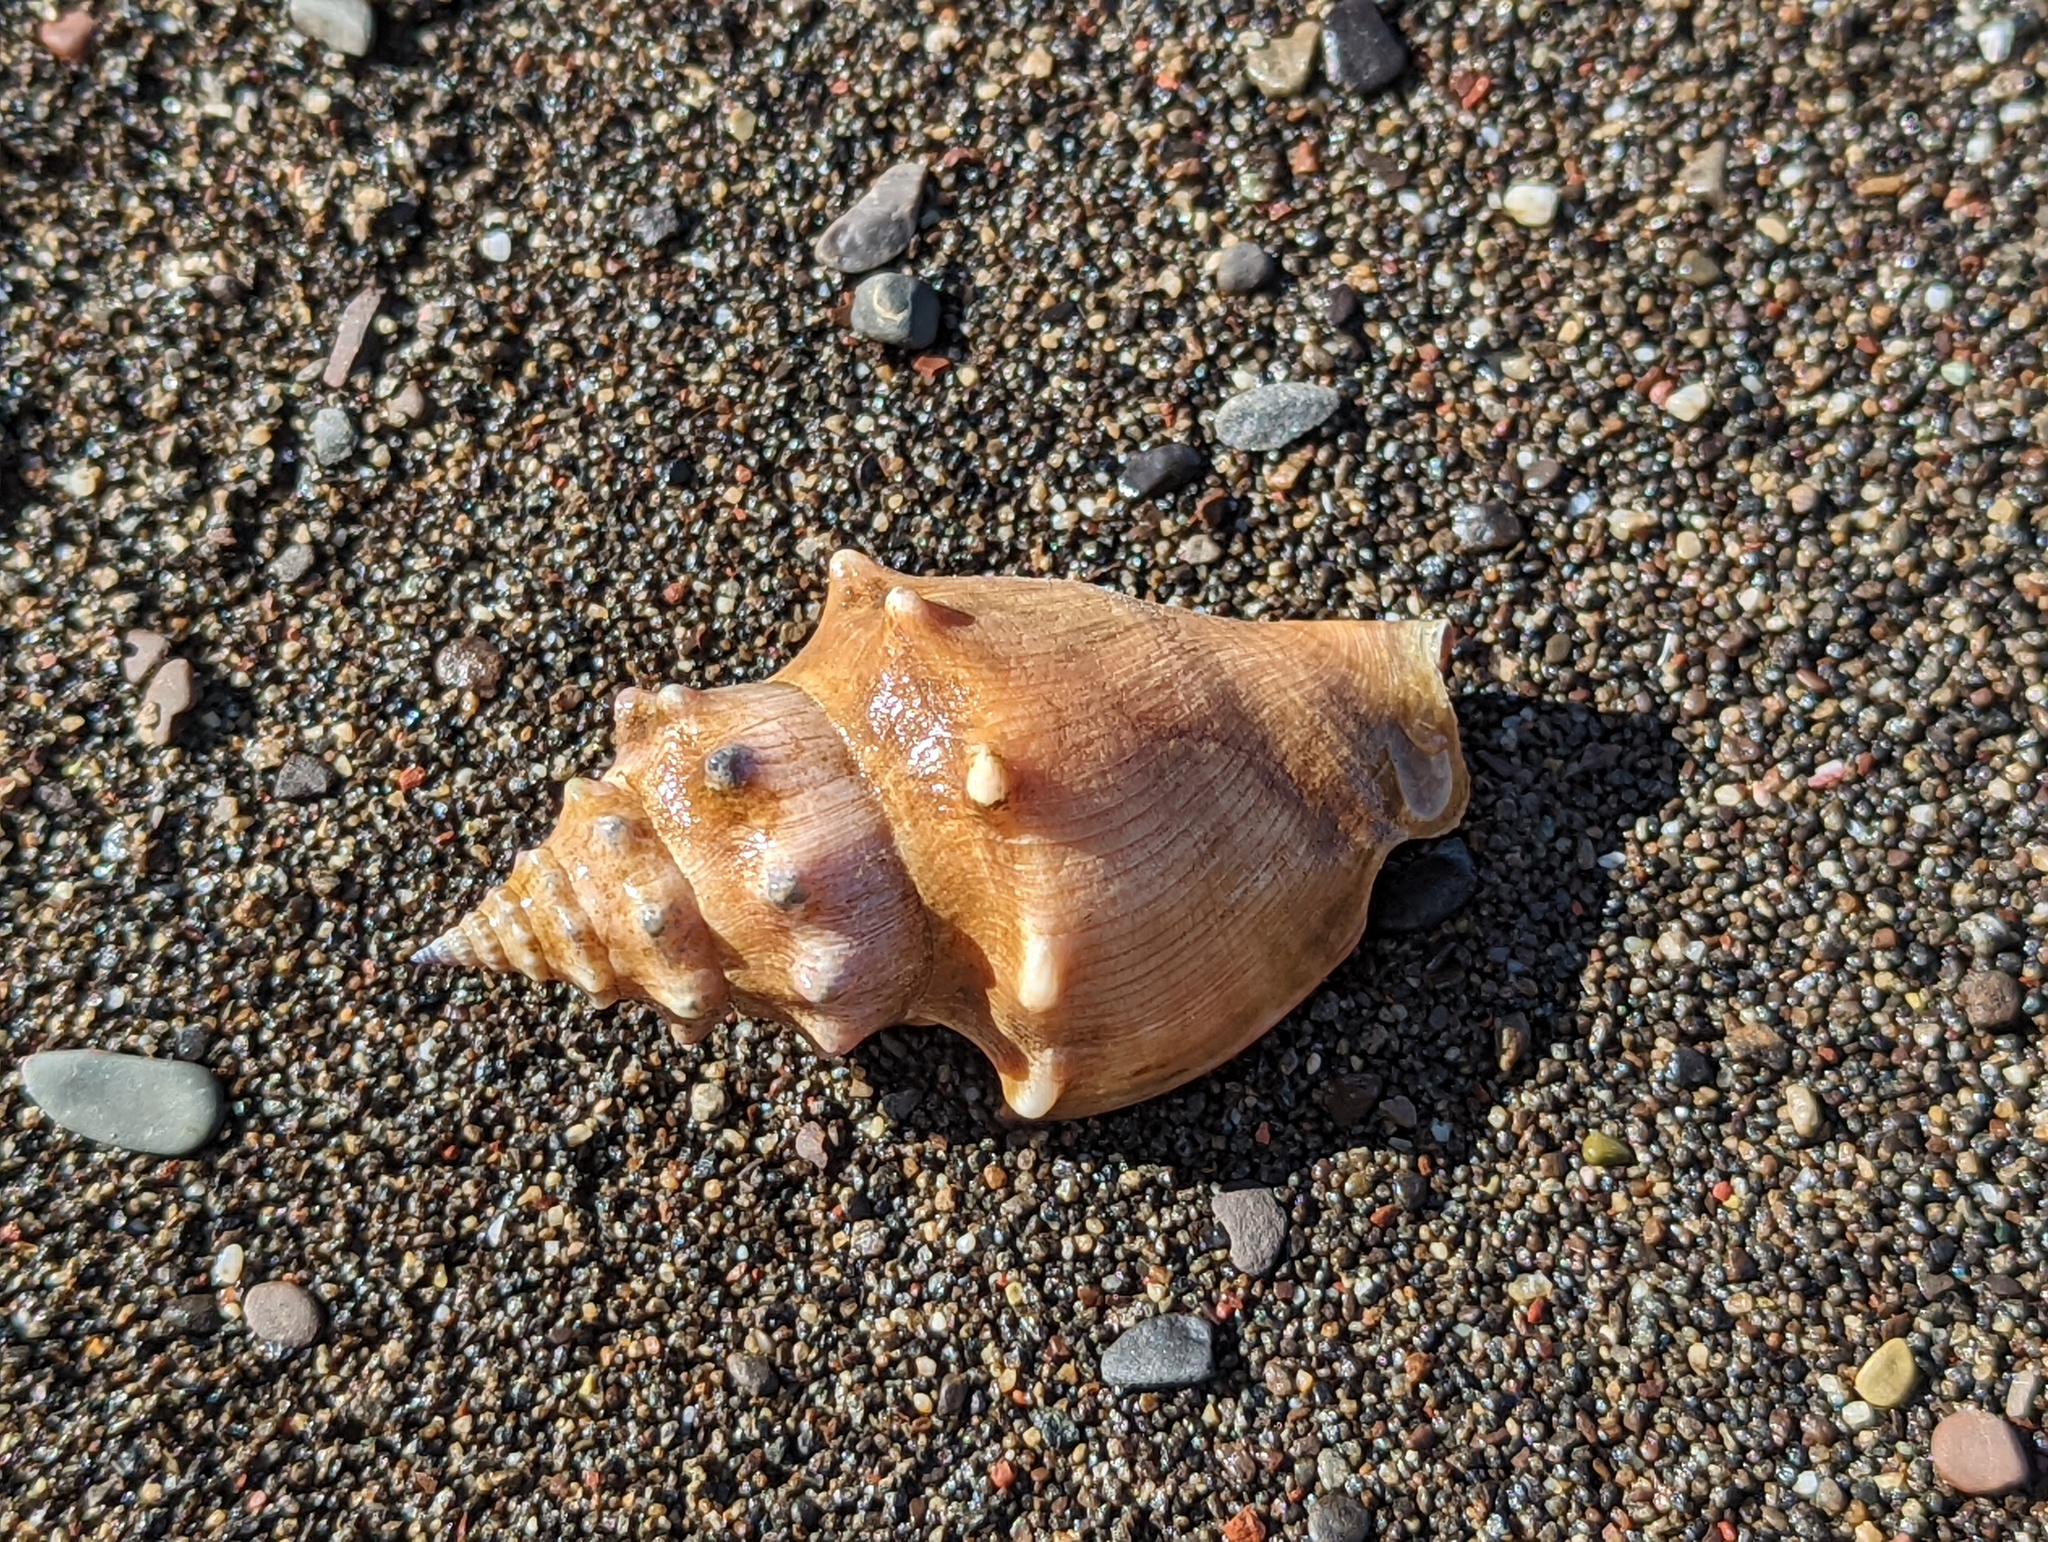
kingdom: Animalia
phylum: Mollusca
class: Gastropoda
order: Littorinimorpha
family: Strombidae
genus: Strombus
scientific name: Strombus gracilior
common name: Eastern pacific fighting conch
